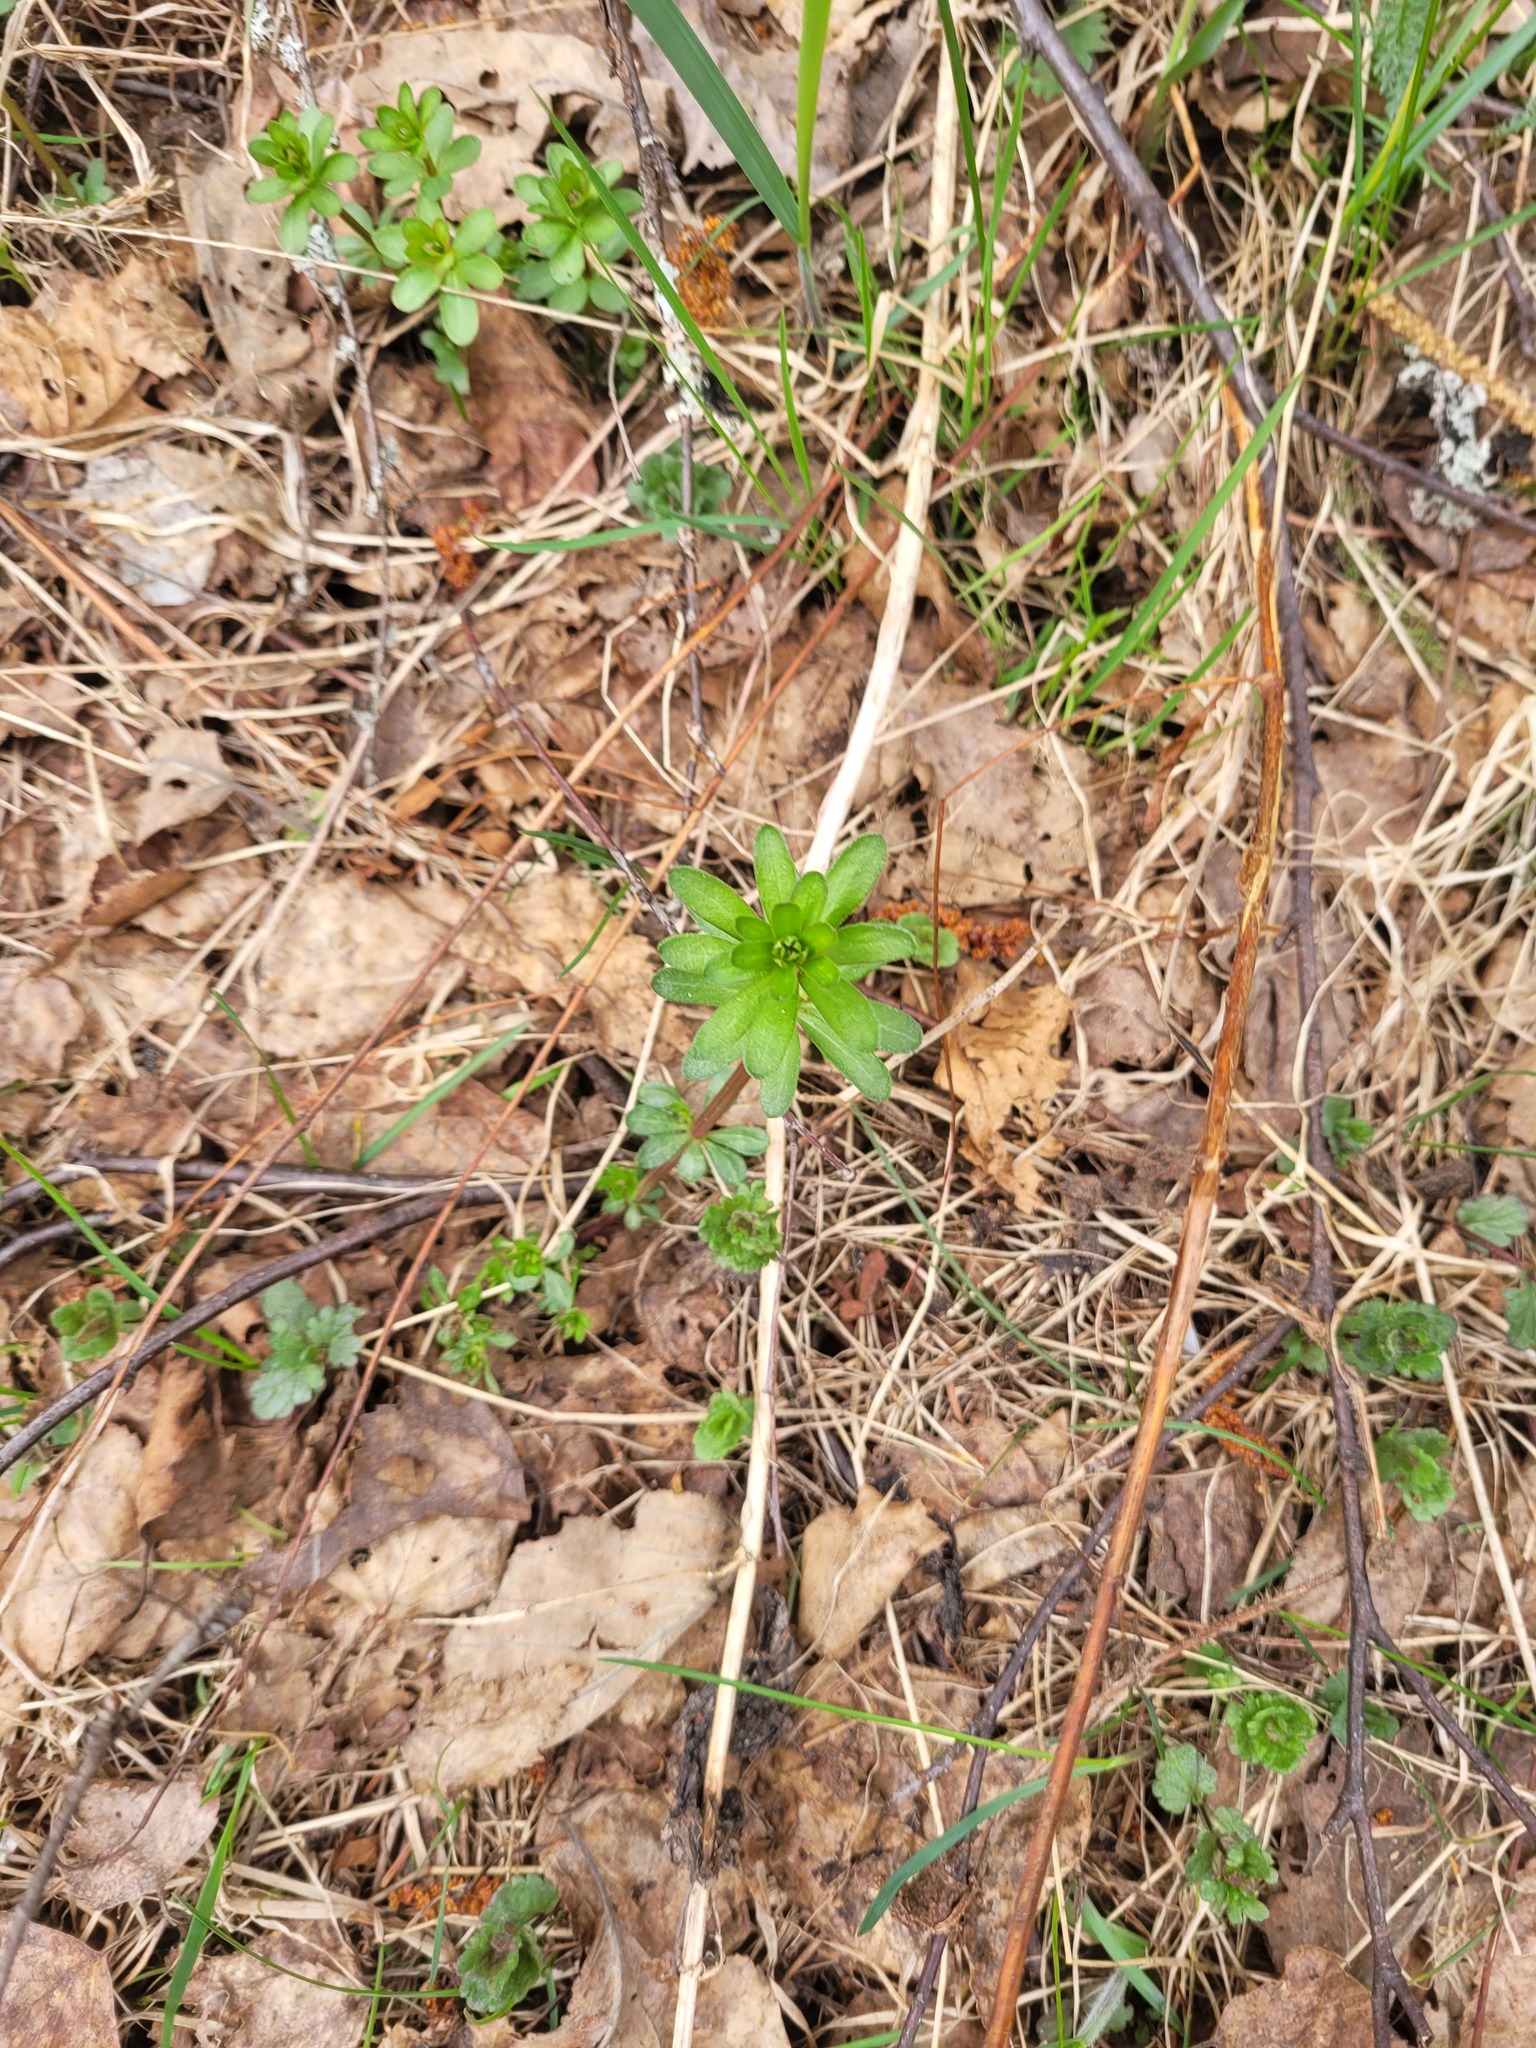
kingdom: Plantae
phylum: Tracheophyta
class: Magnoliopsida
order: Gentianales
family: Rubiaceae
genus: Galium
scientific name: Galium mollugo
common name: Hedge bedstraw
